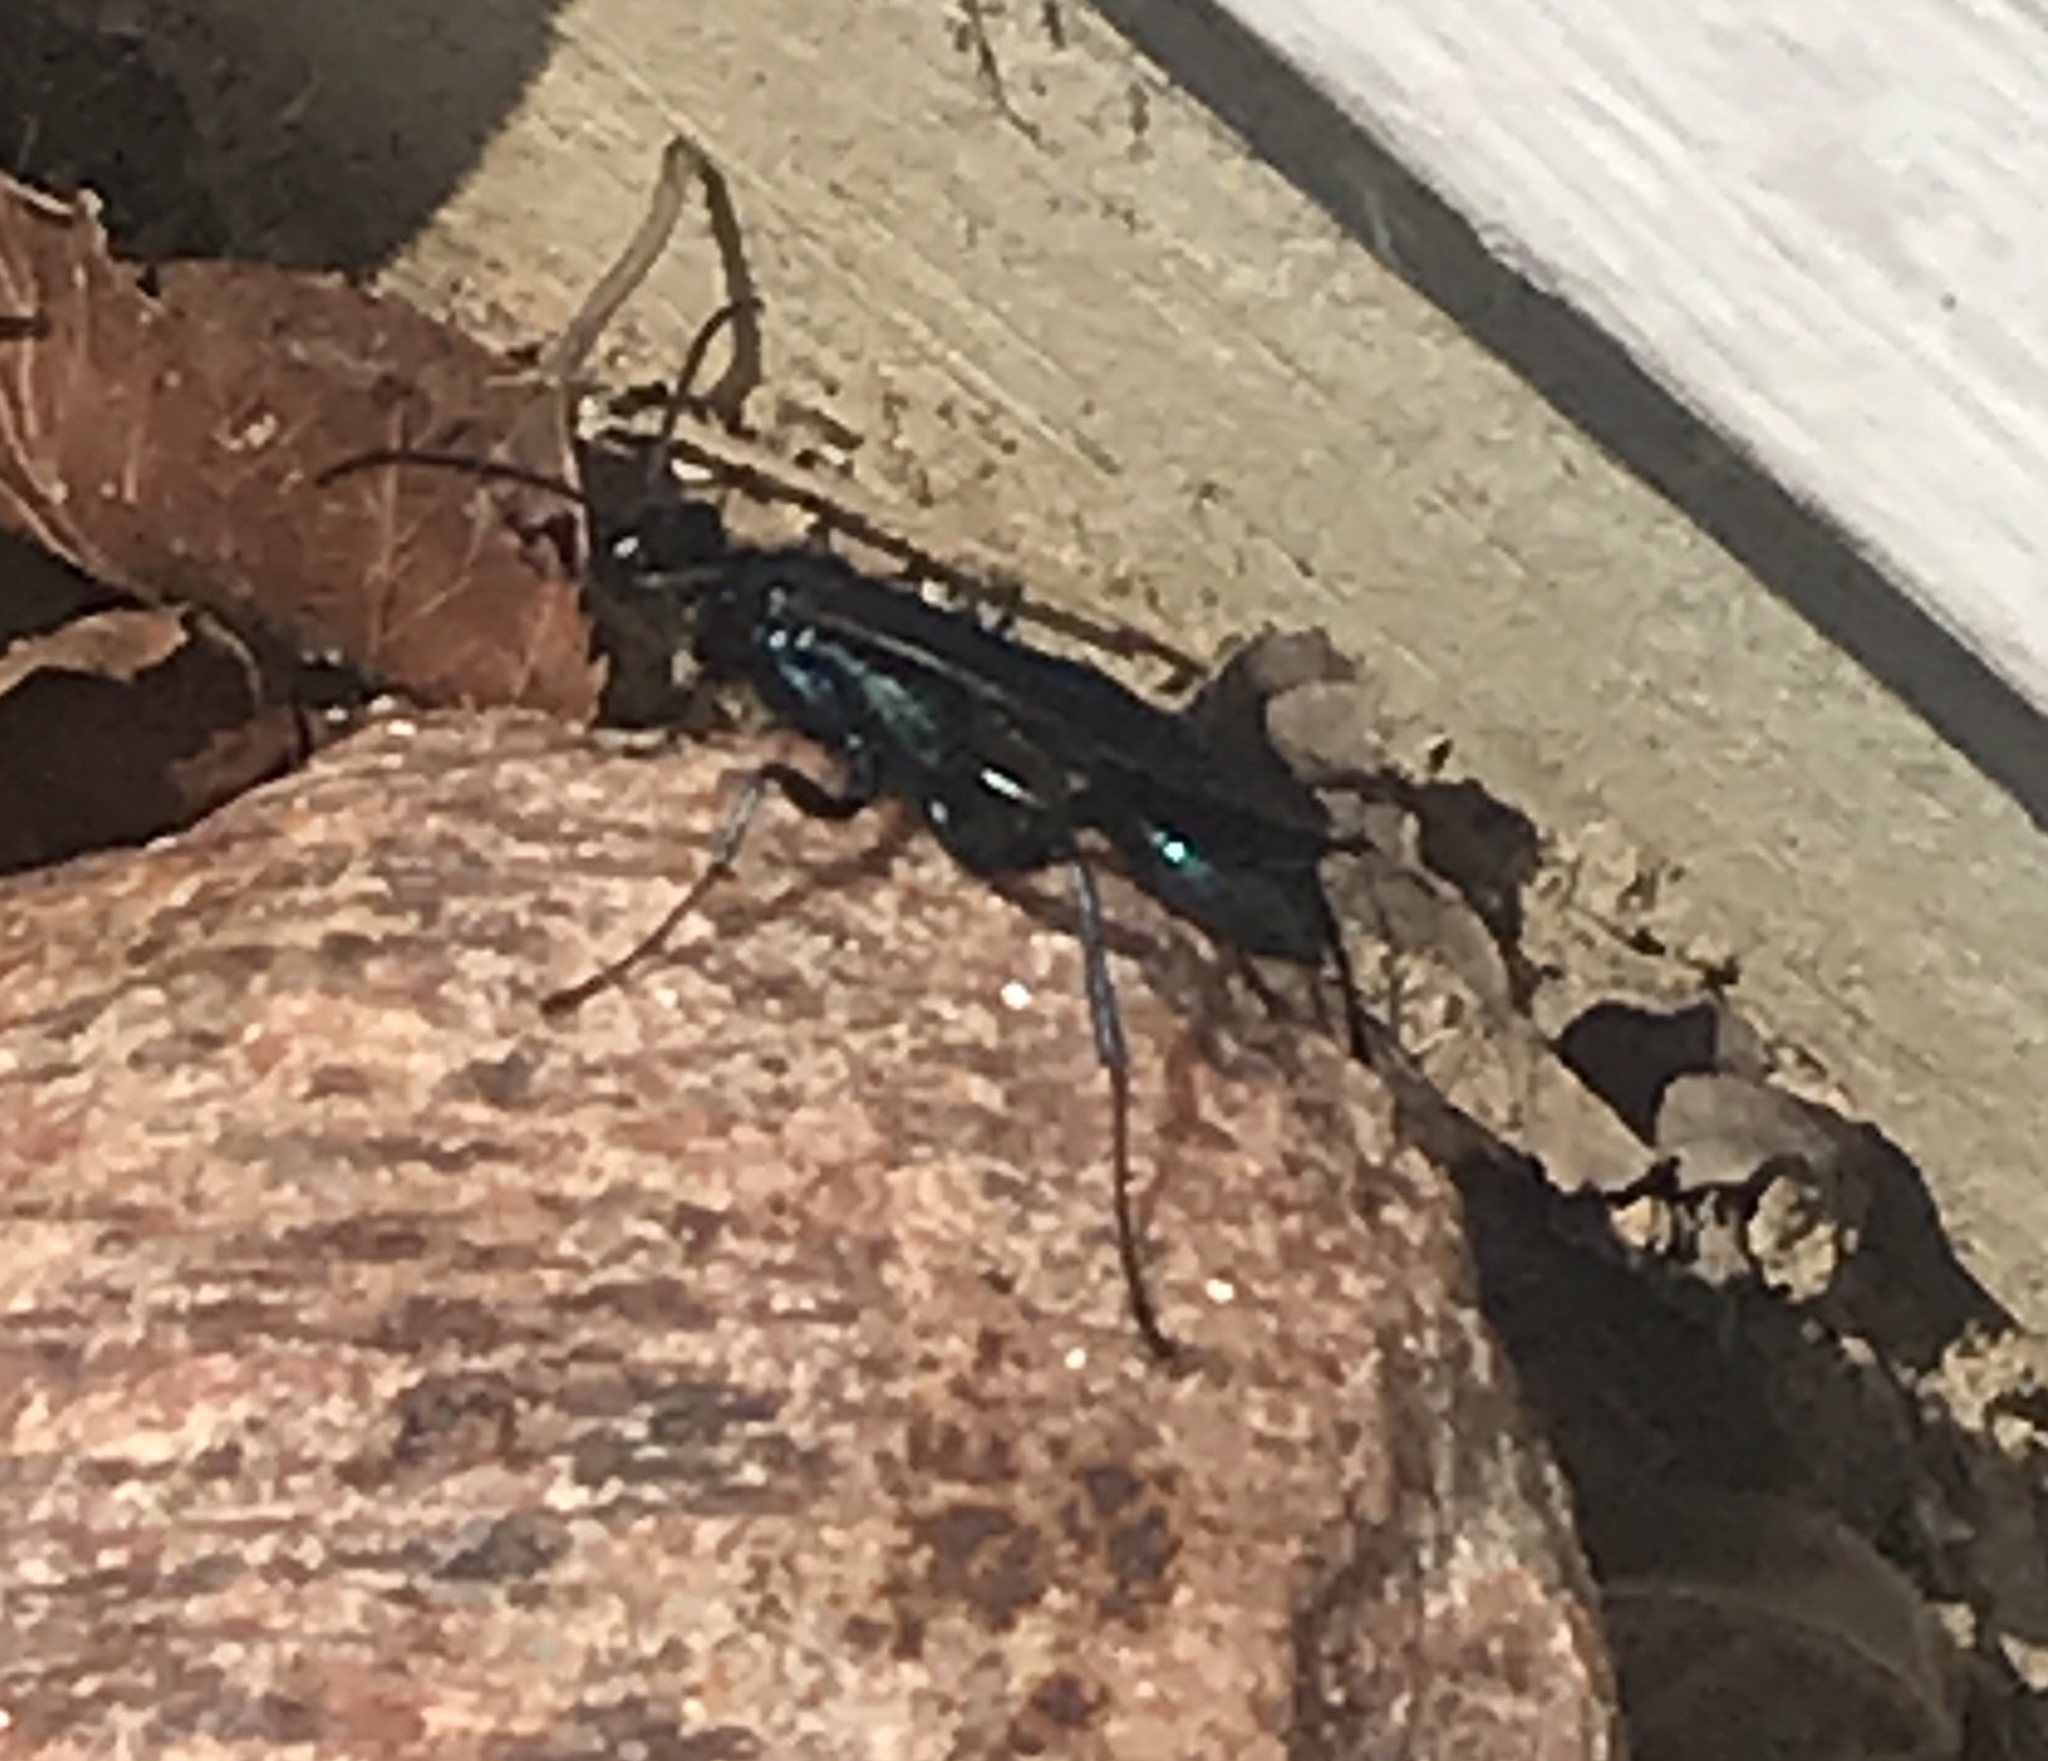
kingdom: Animalia
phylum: Arthropoda
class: Insecta
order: Hymenoptera
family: Sphecidae
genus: Chalybion
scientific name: Chalybion californicum
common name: Mud dauber
